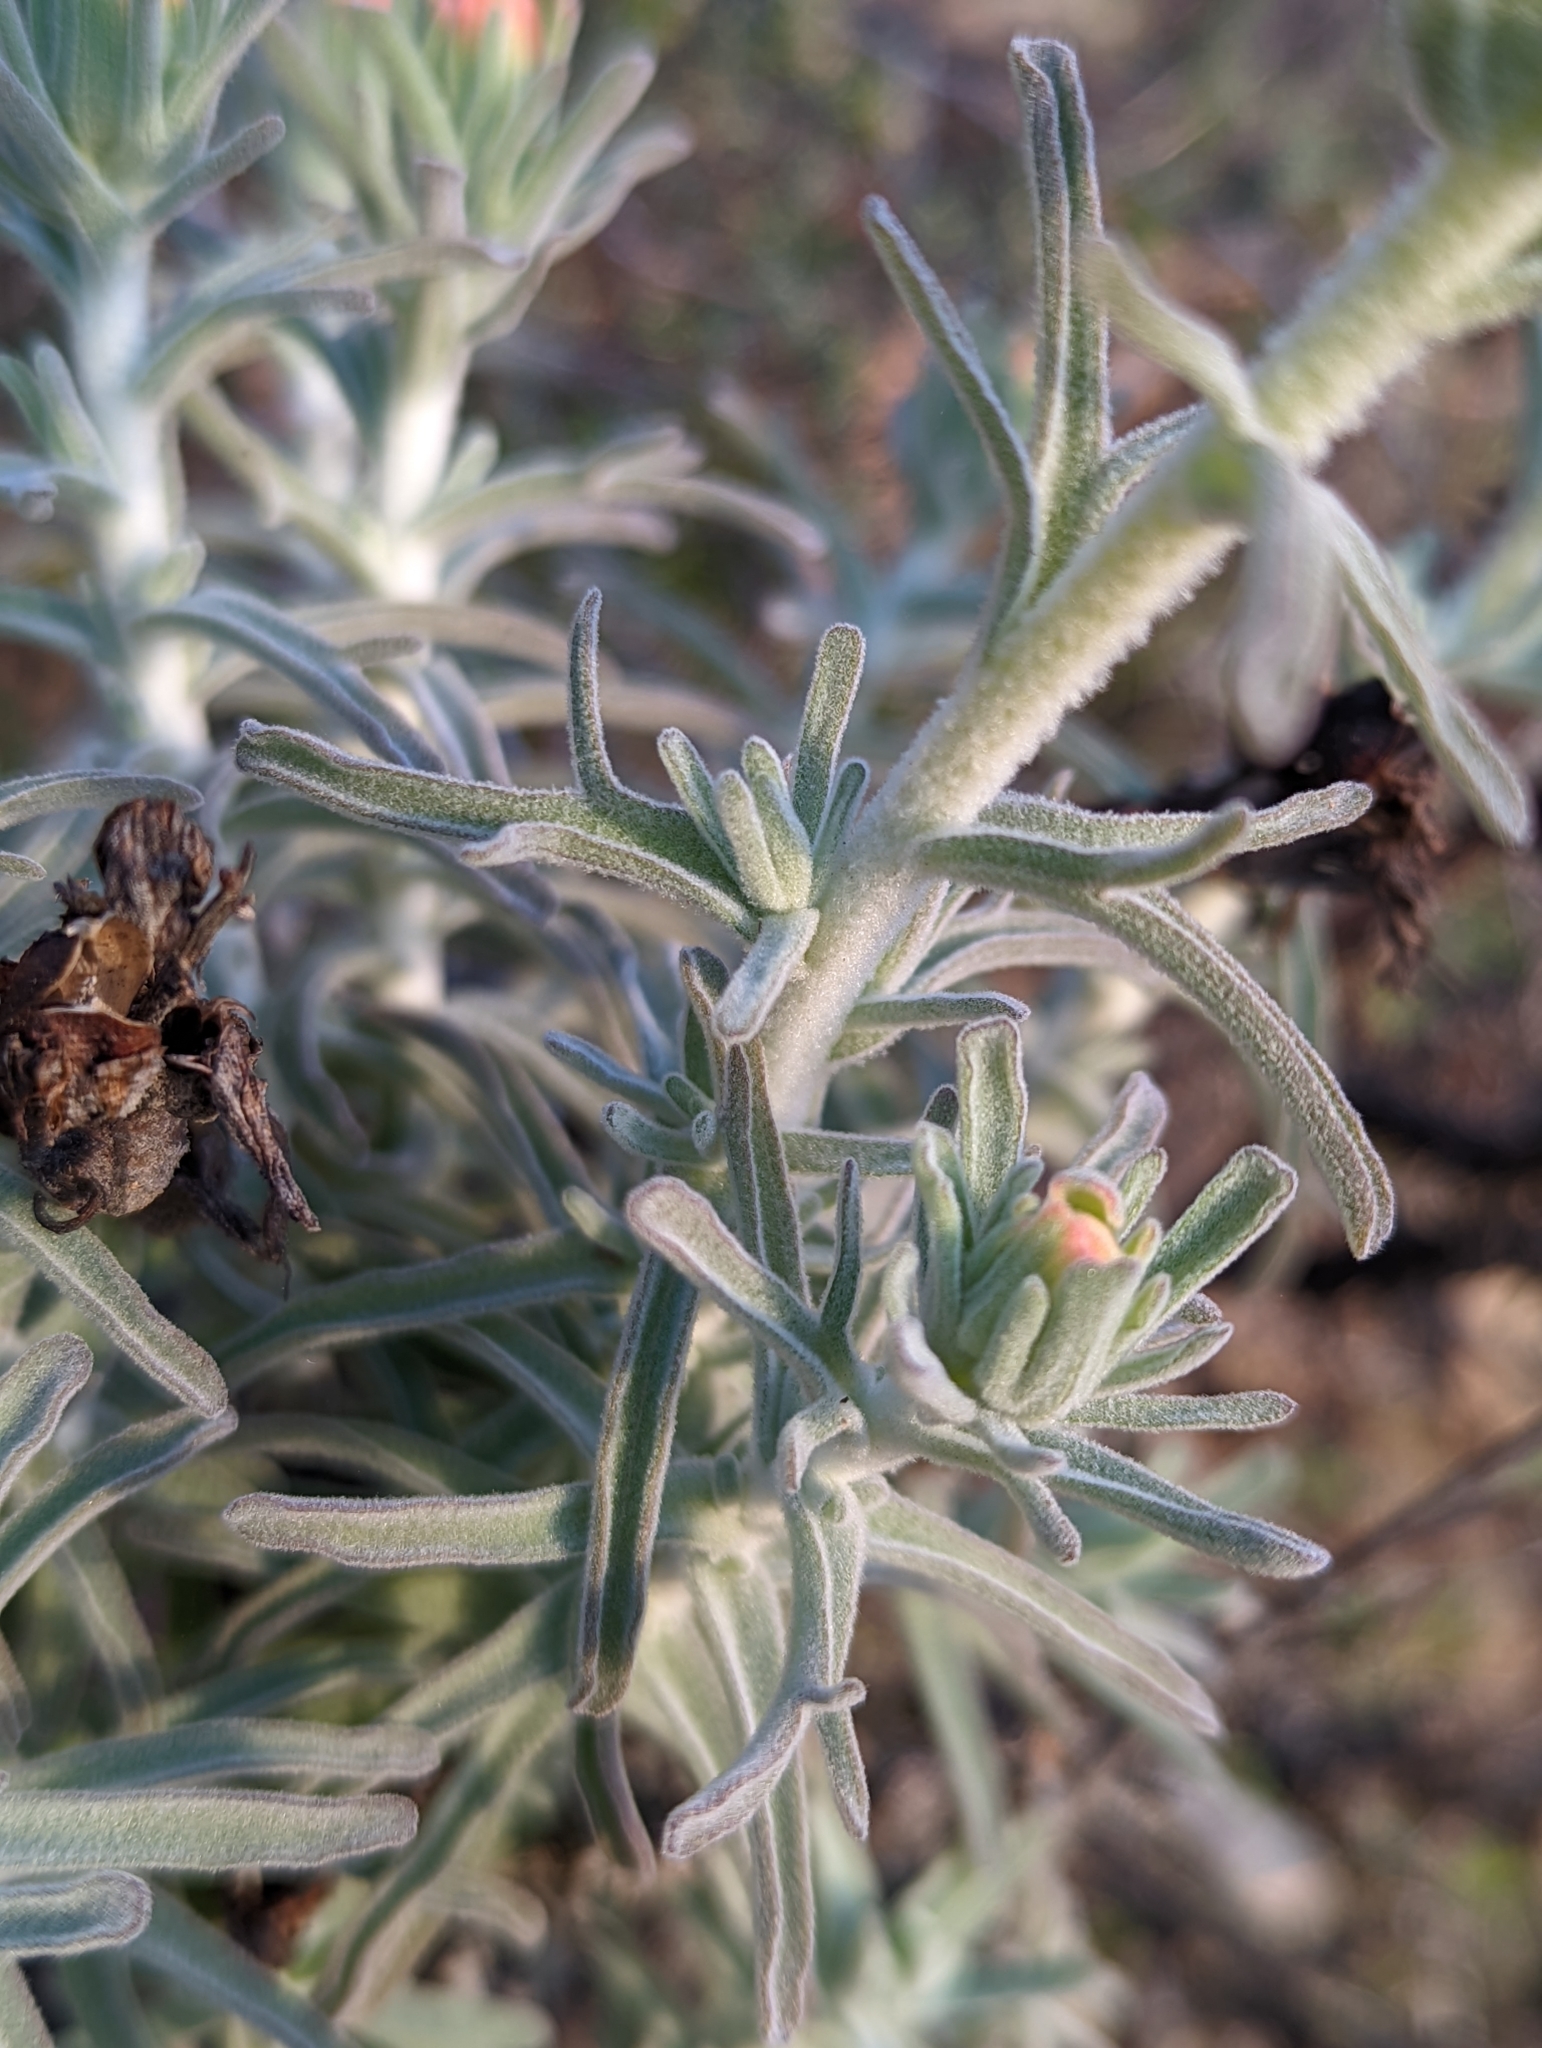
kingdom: Plantae
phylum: Tracheophyta
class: Magnoliopsida
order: Lamiales
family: Orobanchaceae
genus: Castilleja
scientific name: Castilleja foliolosa
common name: Woolly indian paintbrush
